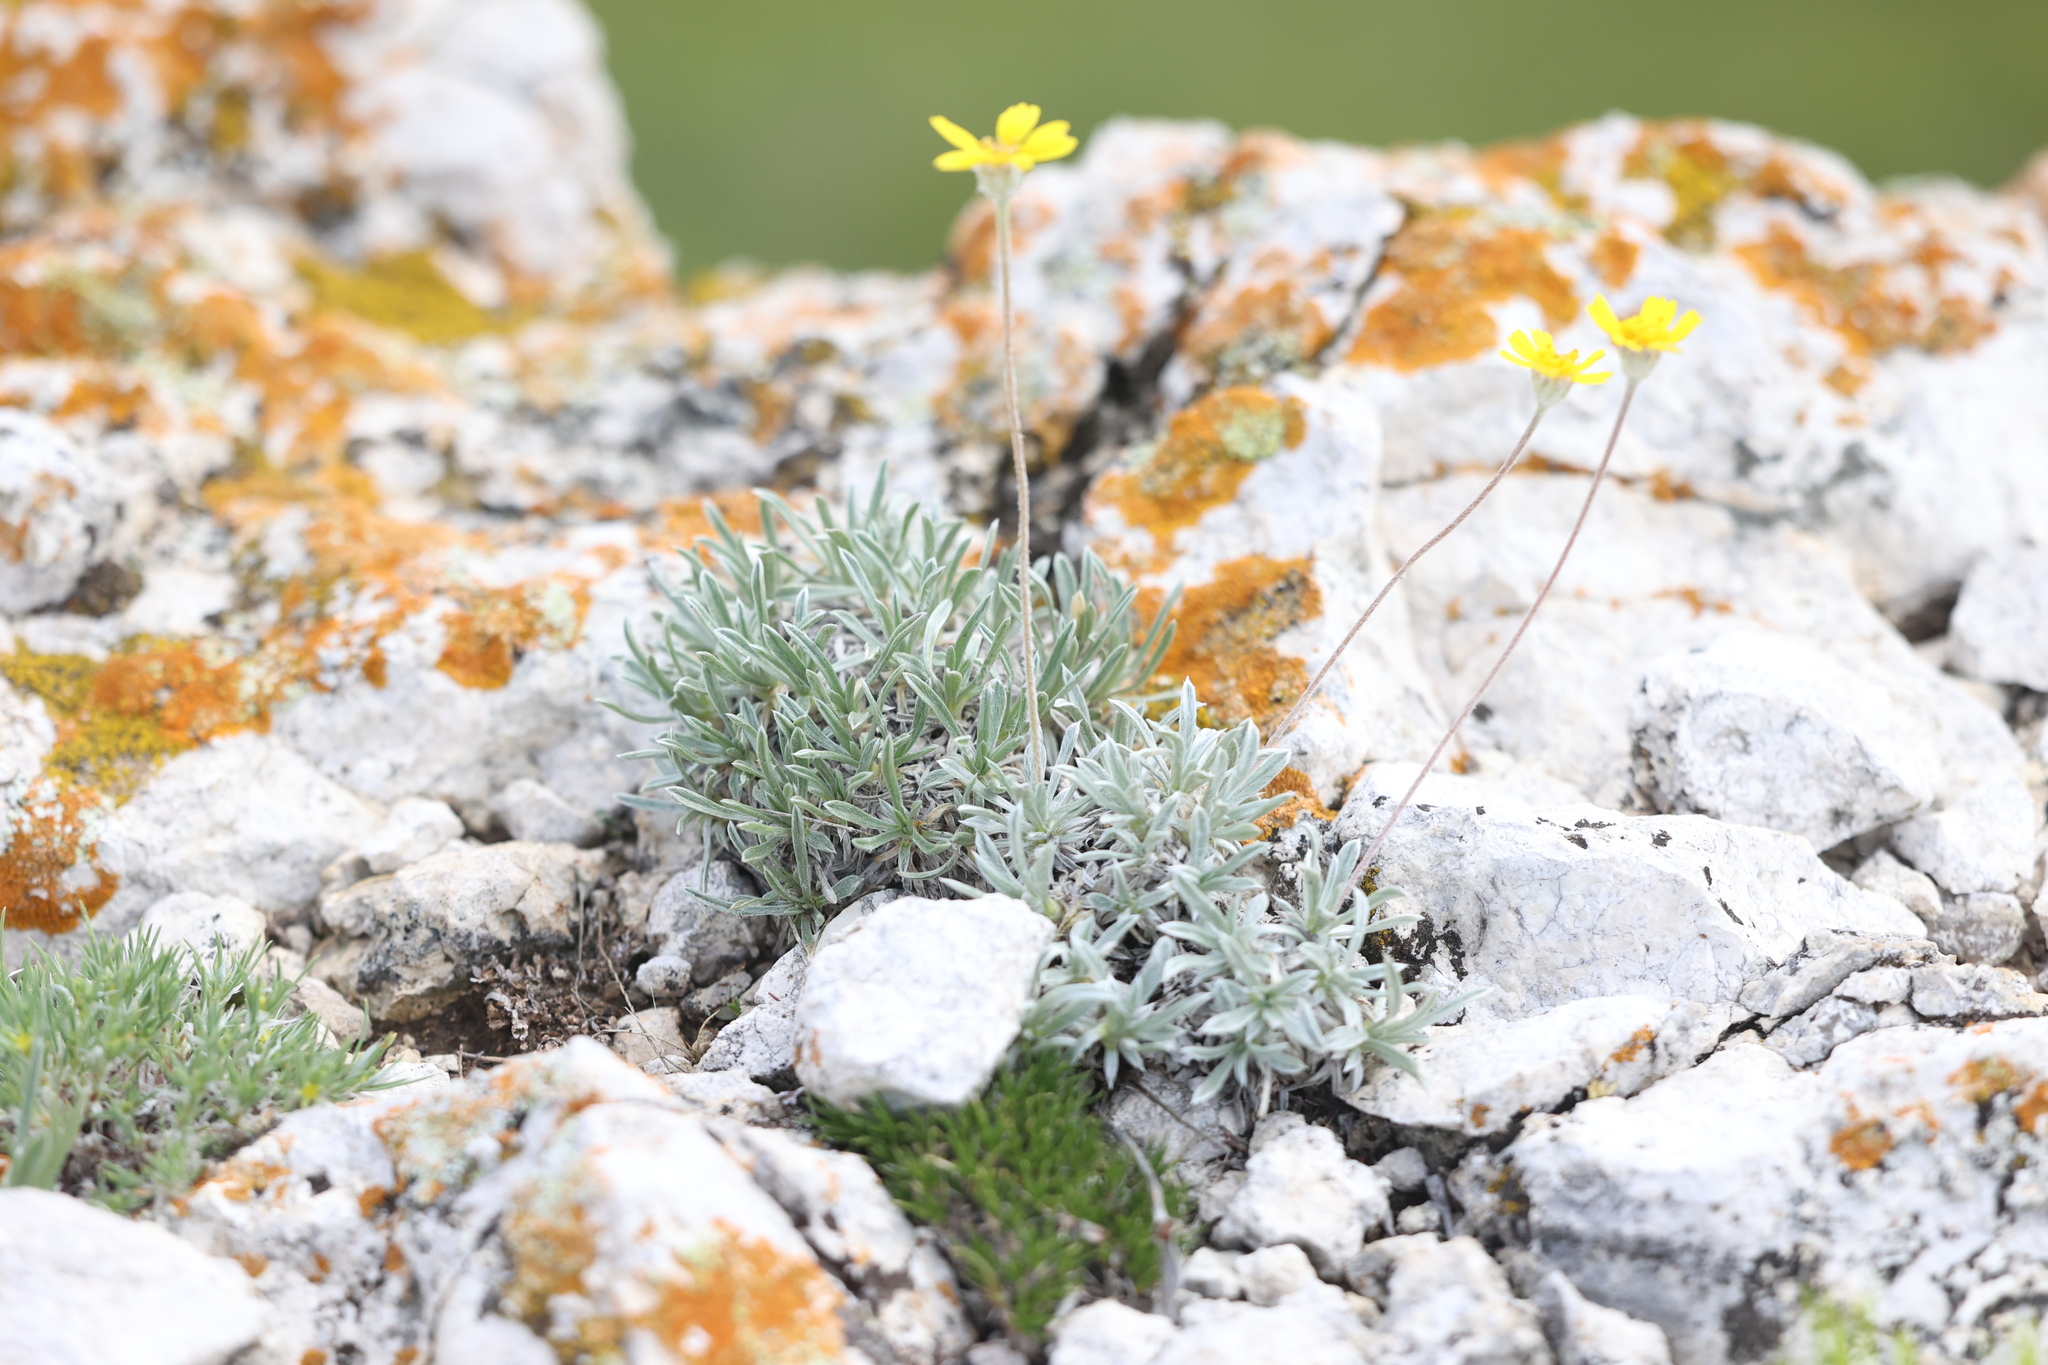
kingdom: Plantae
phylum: Tracheophyta
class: Magnoliopsida
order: Asterales
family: Asteraceae
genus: Tetraneuris
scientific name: Tetraneuris acaulis
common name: Butte marigold
